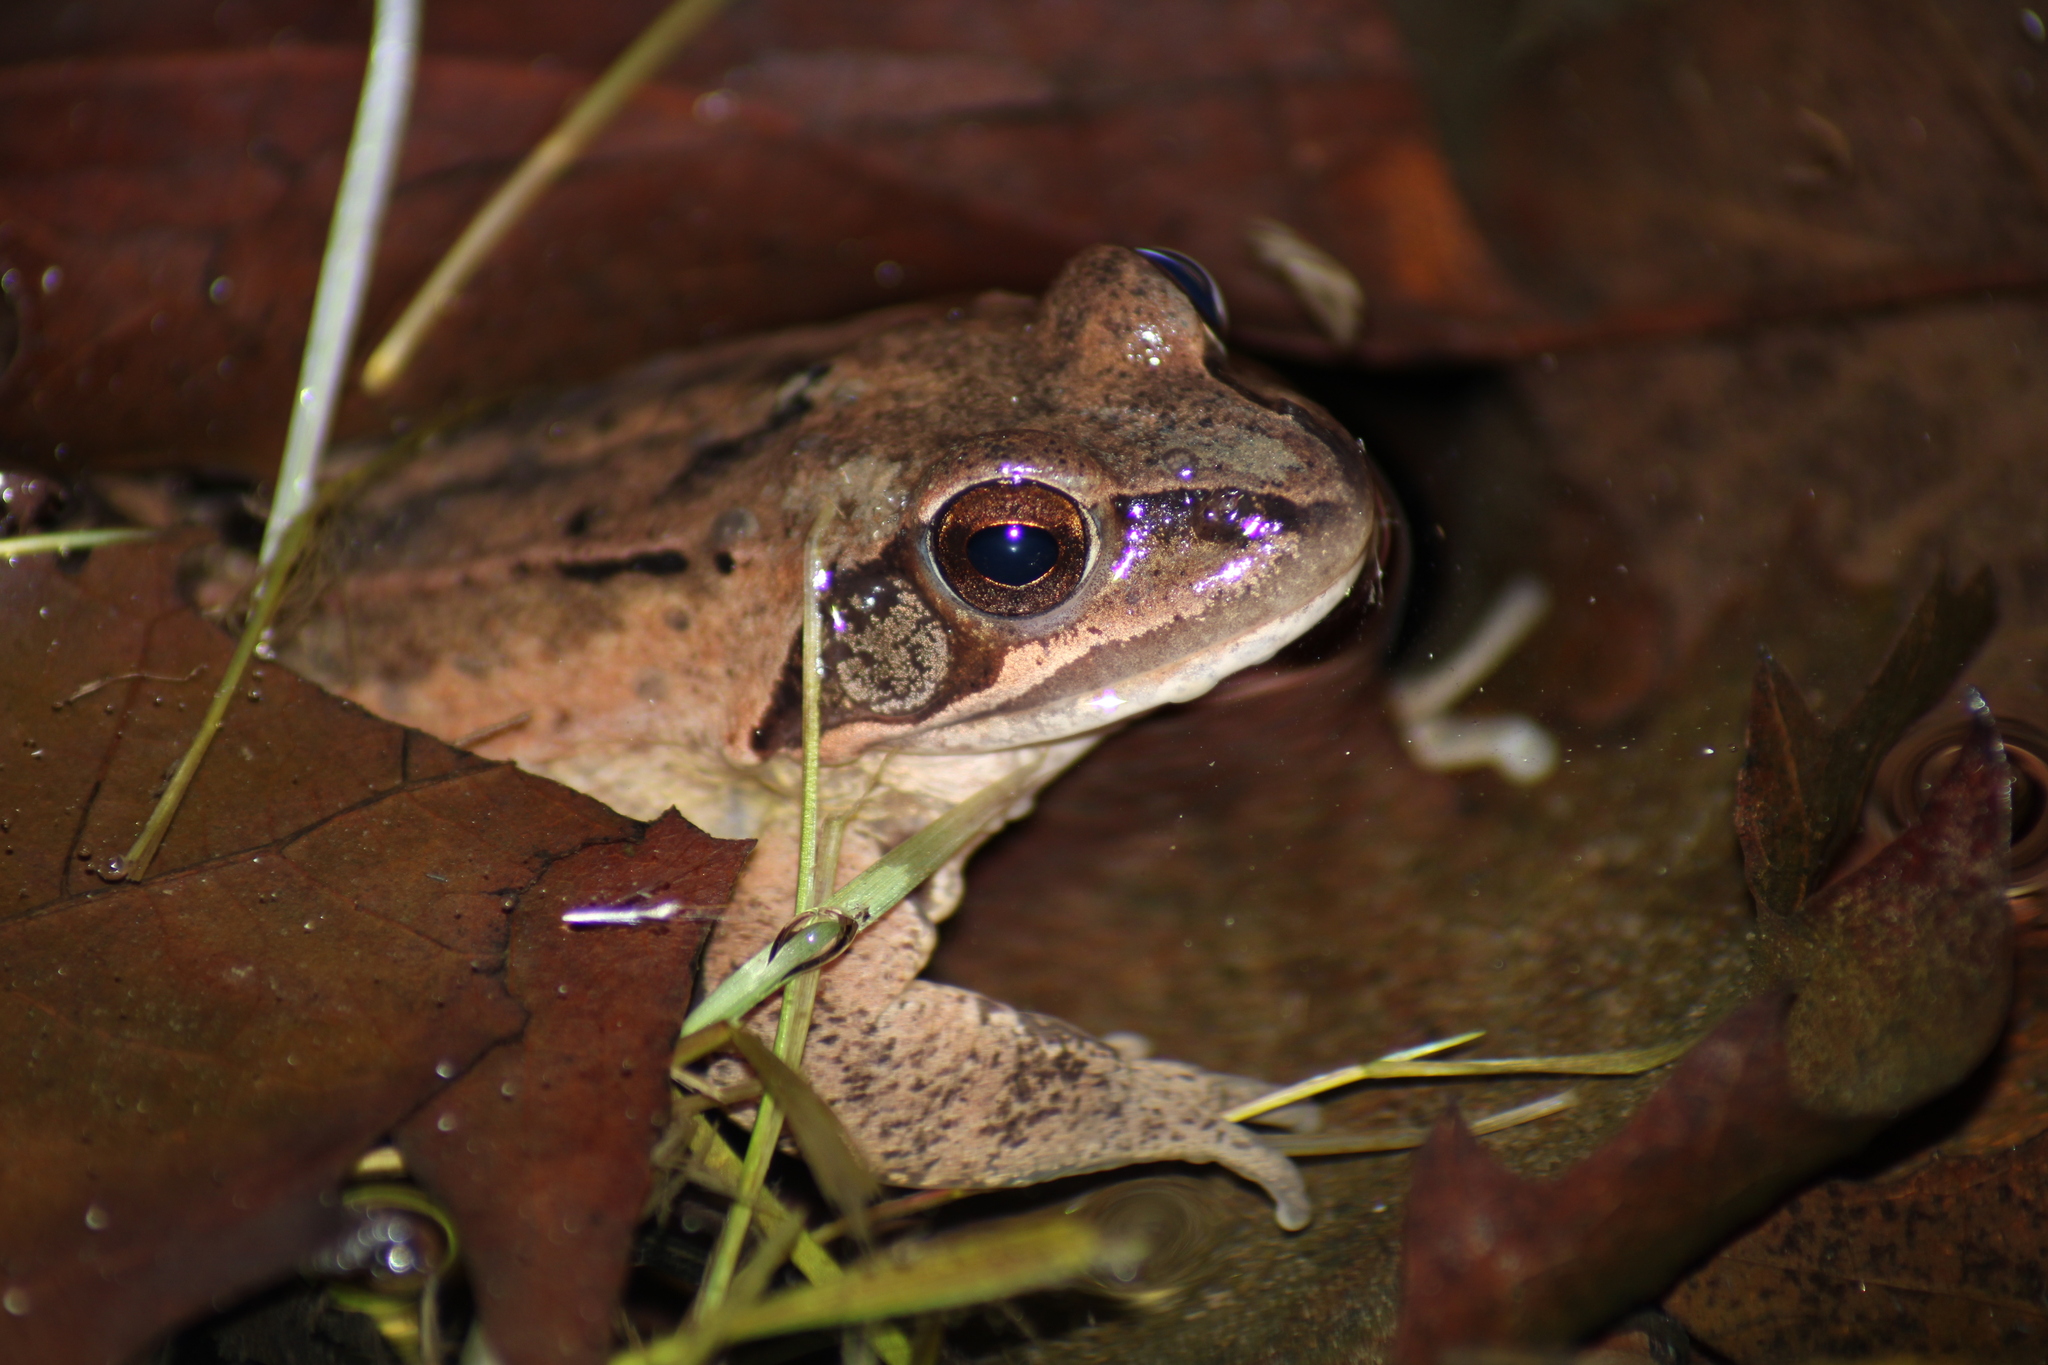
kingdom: Animalia
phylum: Chordata
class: Amphibia
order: Anura
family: Ranidae
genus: Rana
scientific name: Rana dalmatina
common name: Agile frog
